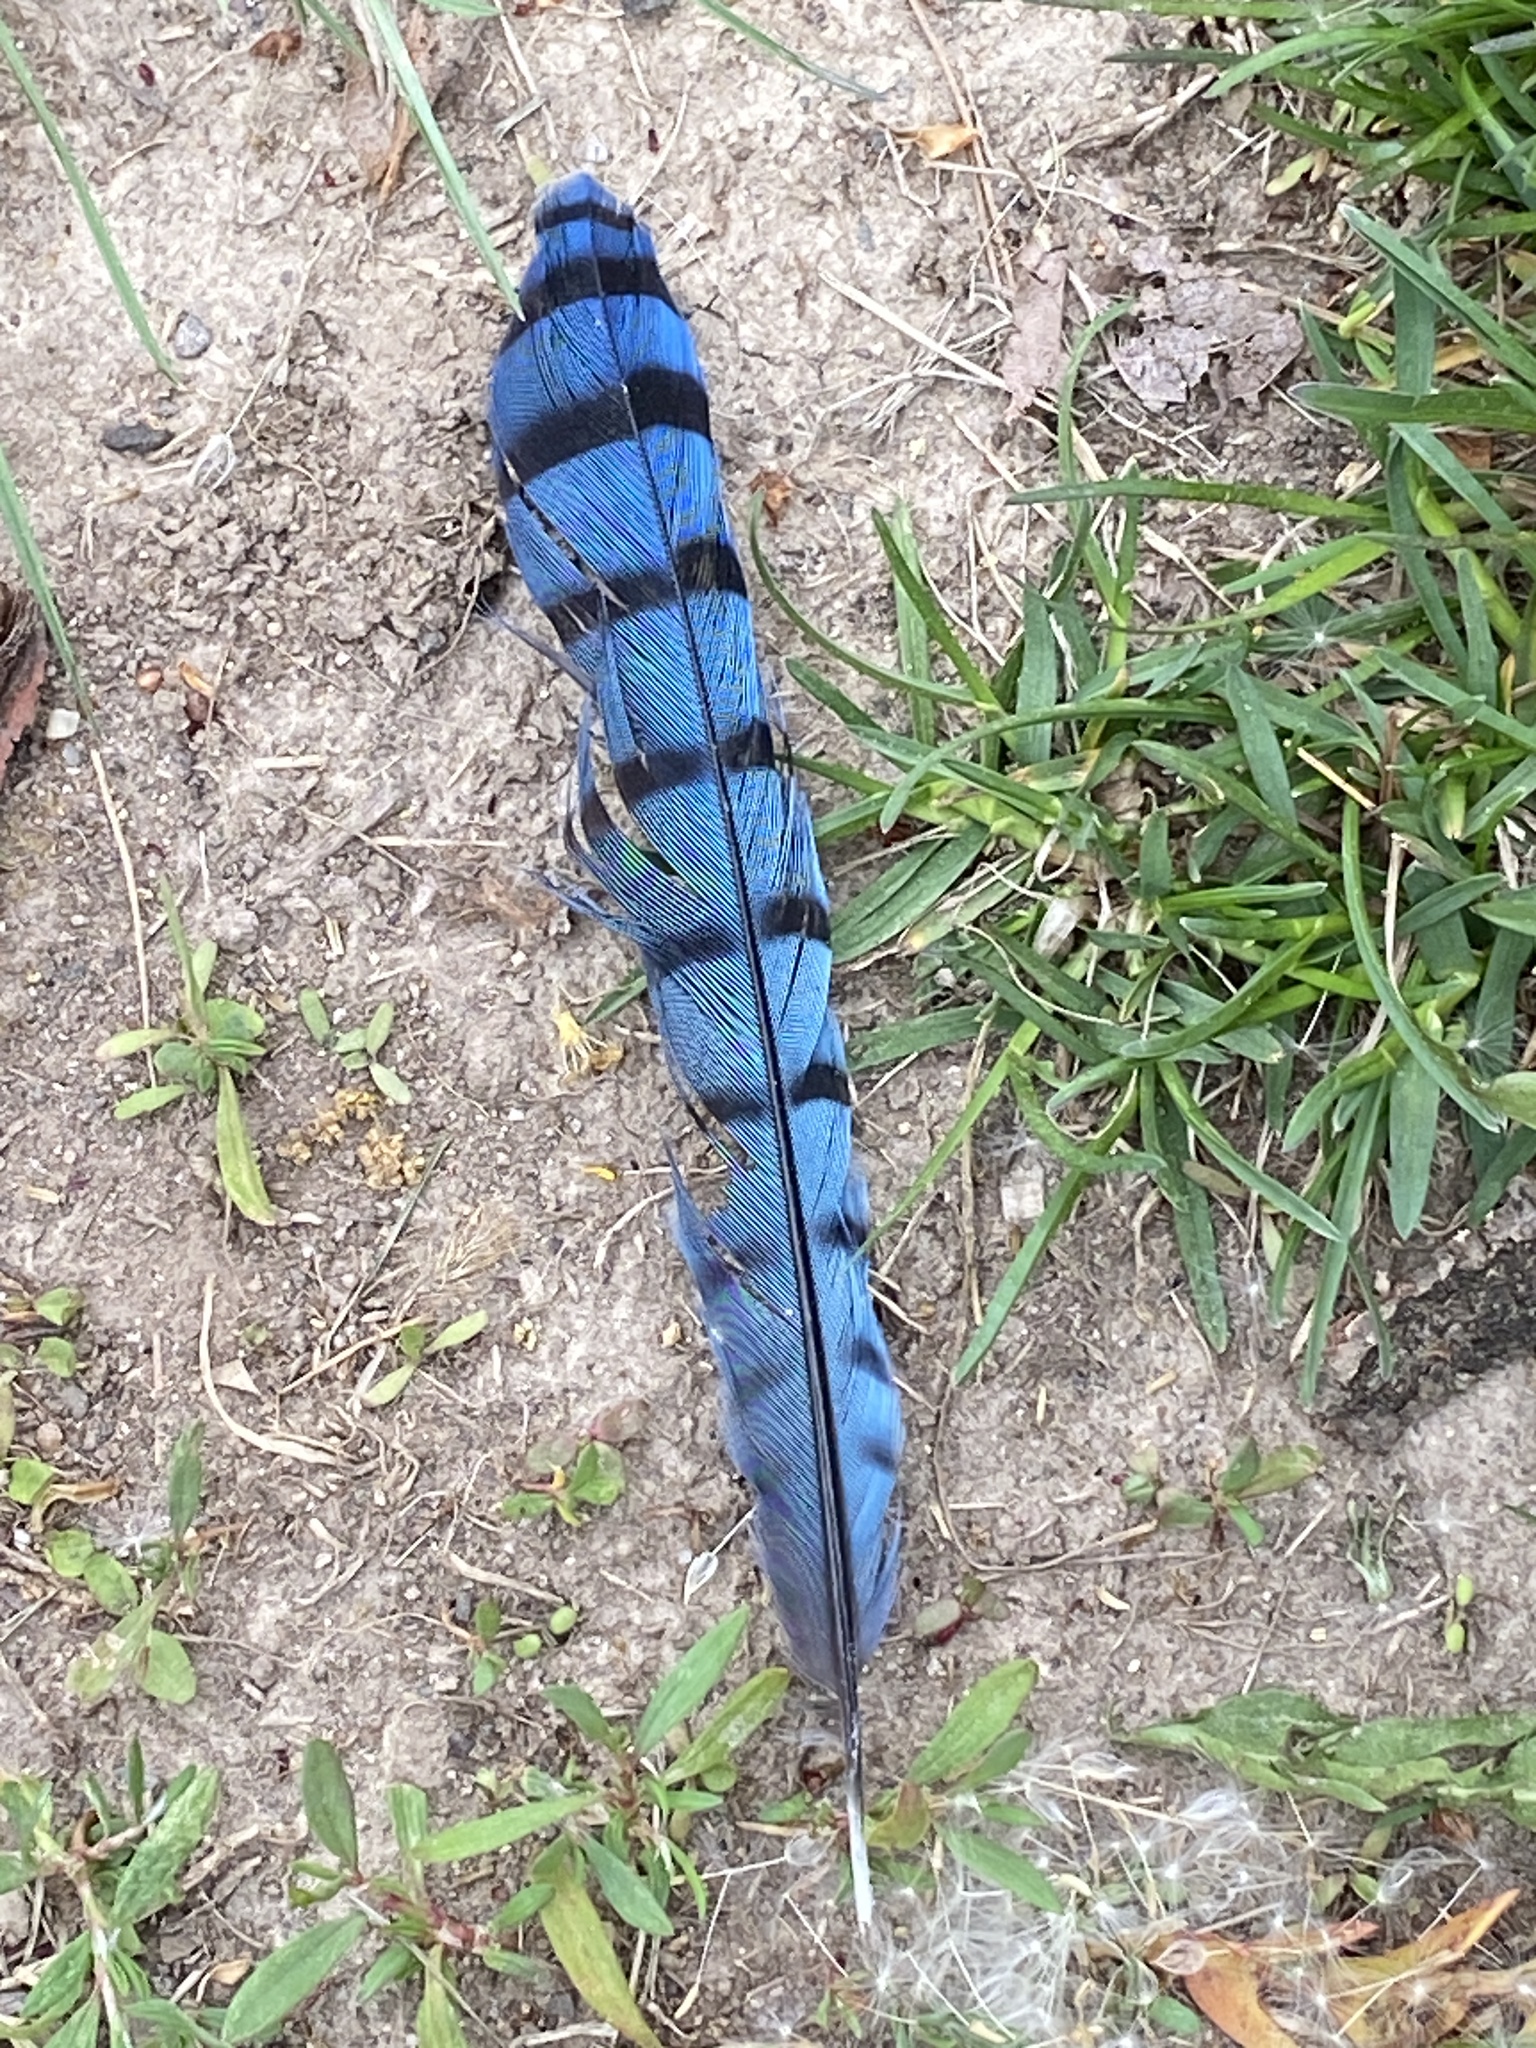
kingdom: Animalia
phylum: Chordata
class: Aves
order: Passeriformes
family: Corvidae
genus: Cyanocitta
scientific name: Cyanocitta cristata
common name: Blue jay
